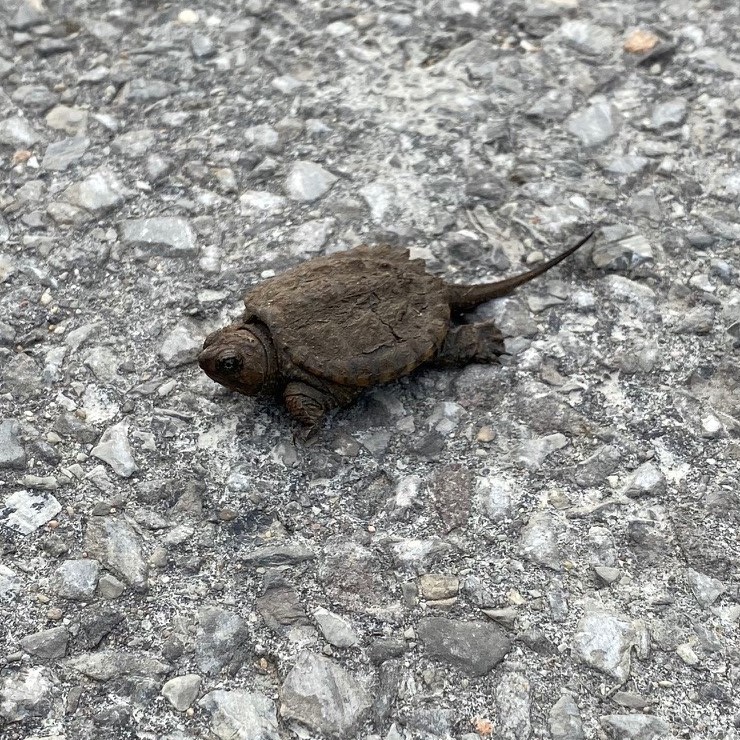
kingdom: Animalia
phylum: Chordata
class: Testudines
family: Chelydridae
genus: Chelydra
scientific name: Chelydra serpentina
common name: Common snapping turtle
